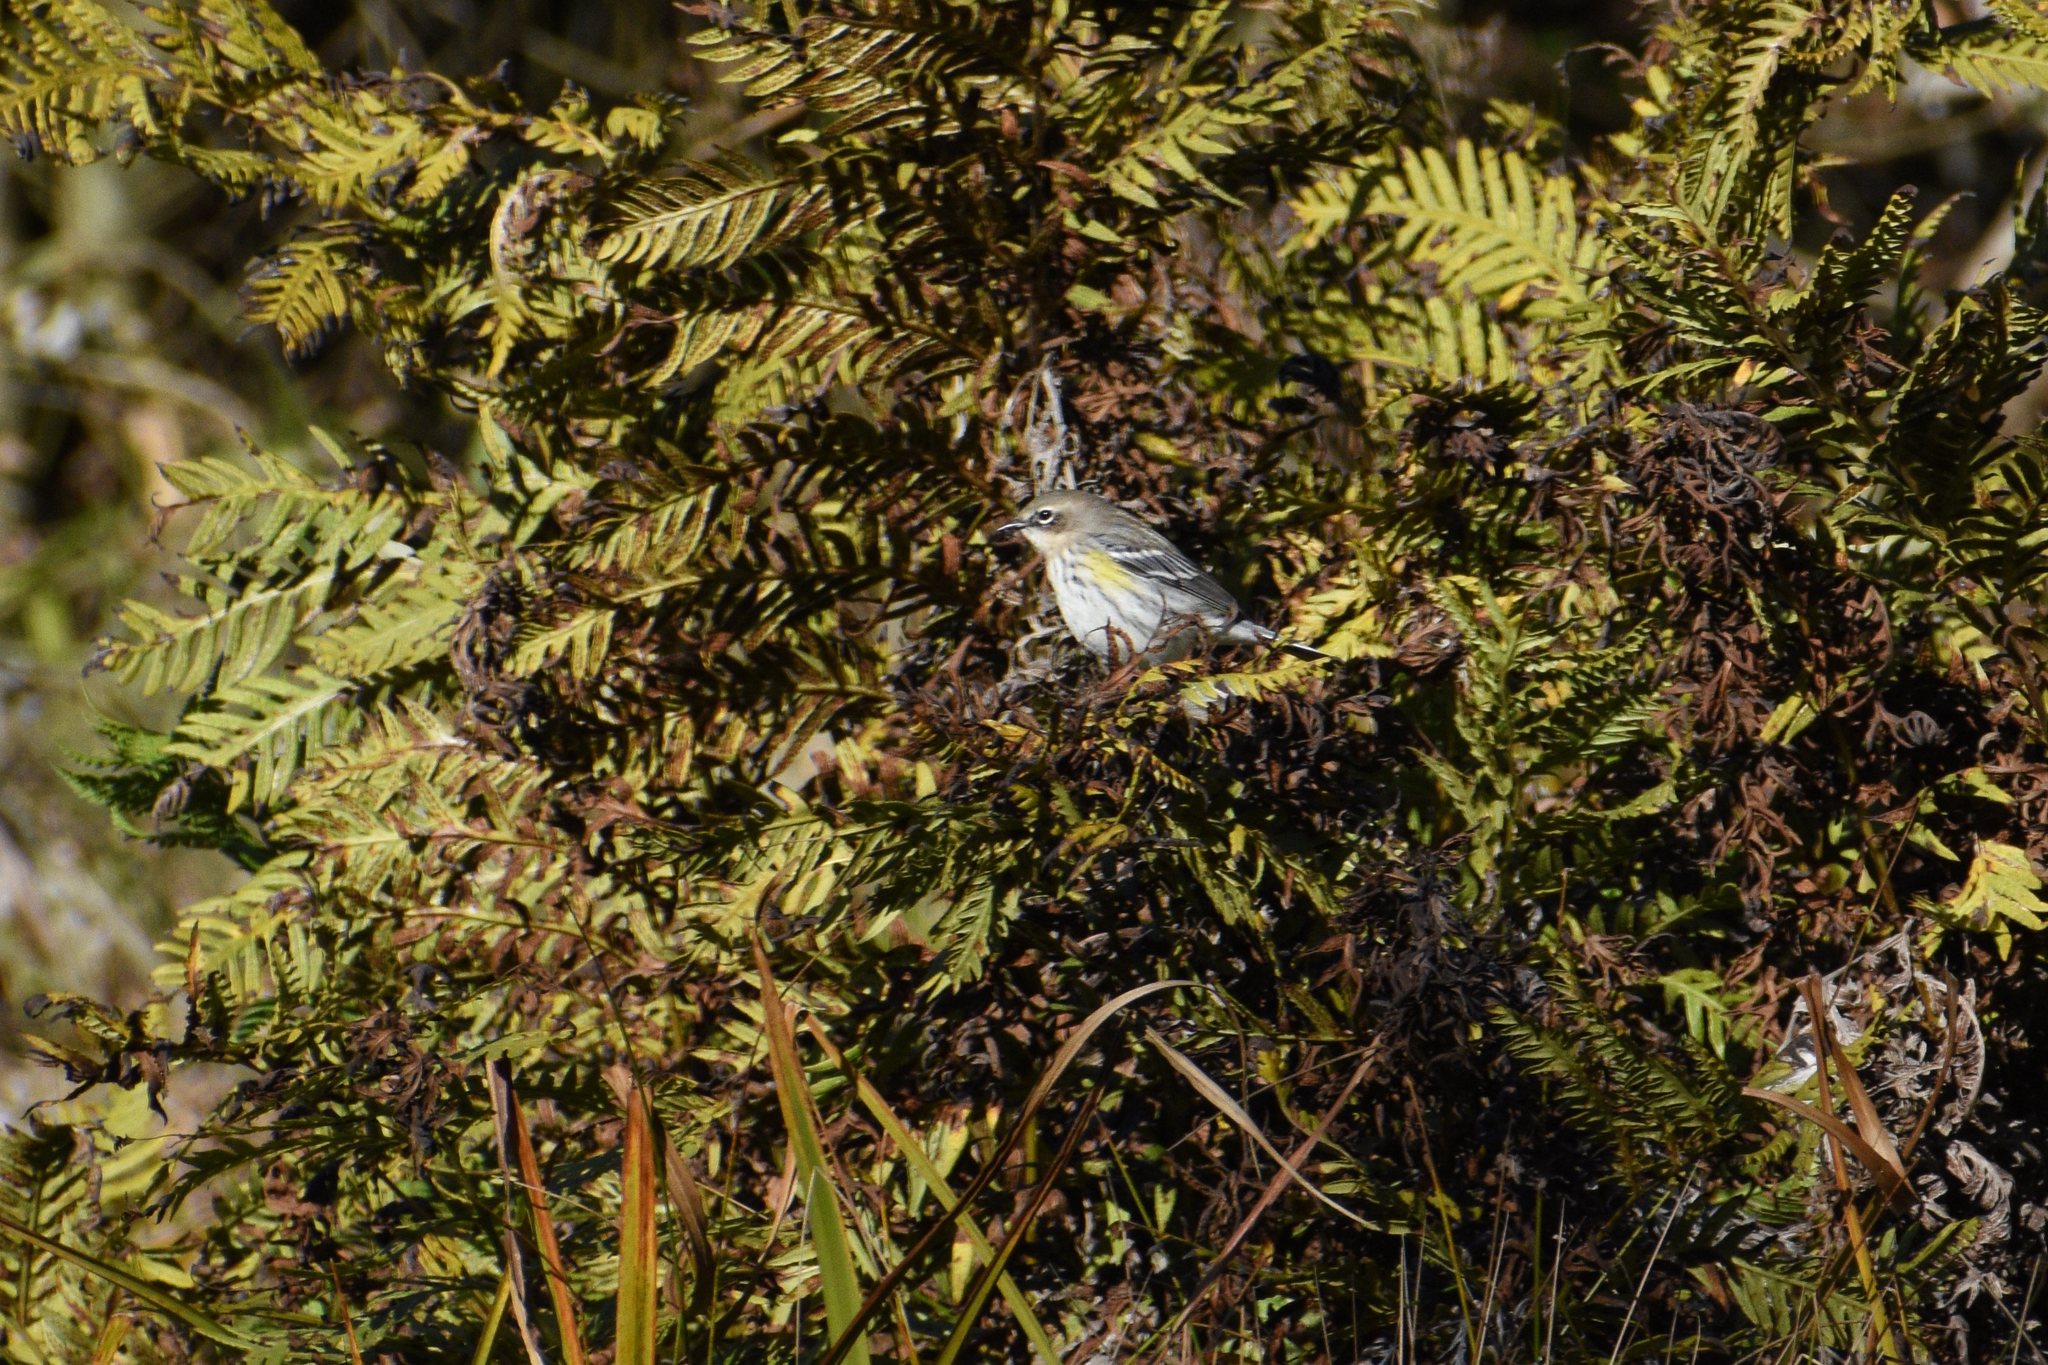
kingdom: Animalia
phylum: Chordata
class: Aves
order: Passeriformes
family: Parulidae
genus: Setophaga
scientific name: Setophaga coronata
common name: Myrtle warbler
